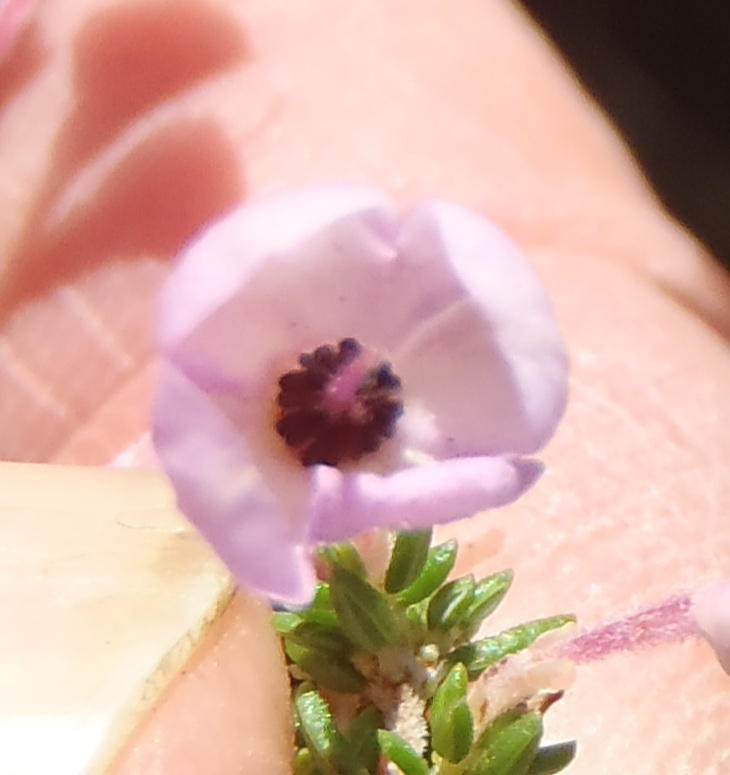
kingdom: Plantae
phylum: Tracheophyta
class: Magnoliopsida
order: Ericales
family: Ericaceae
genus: Erica
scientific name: Erica newdigatei
